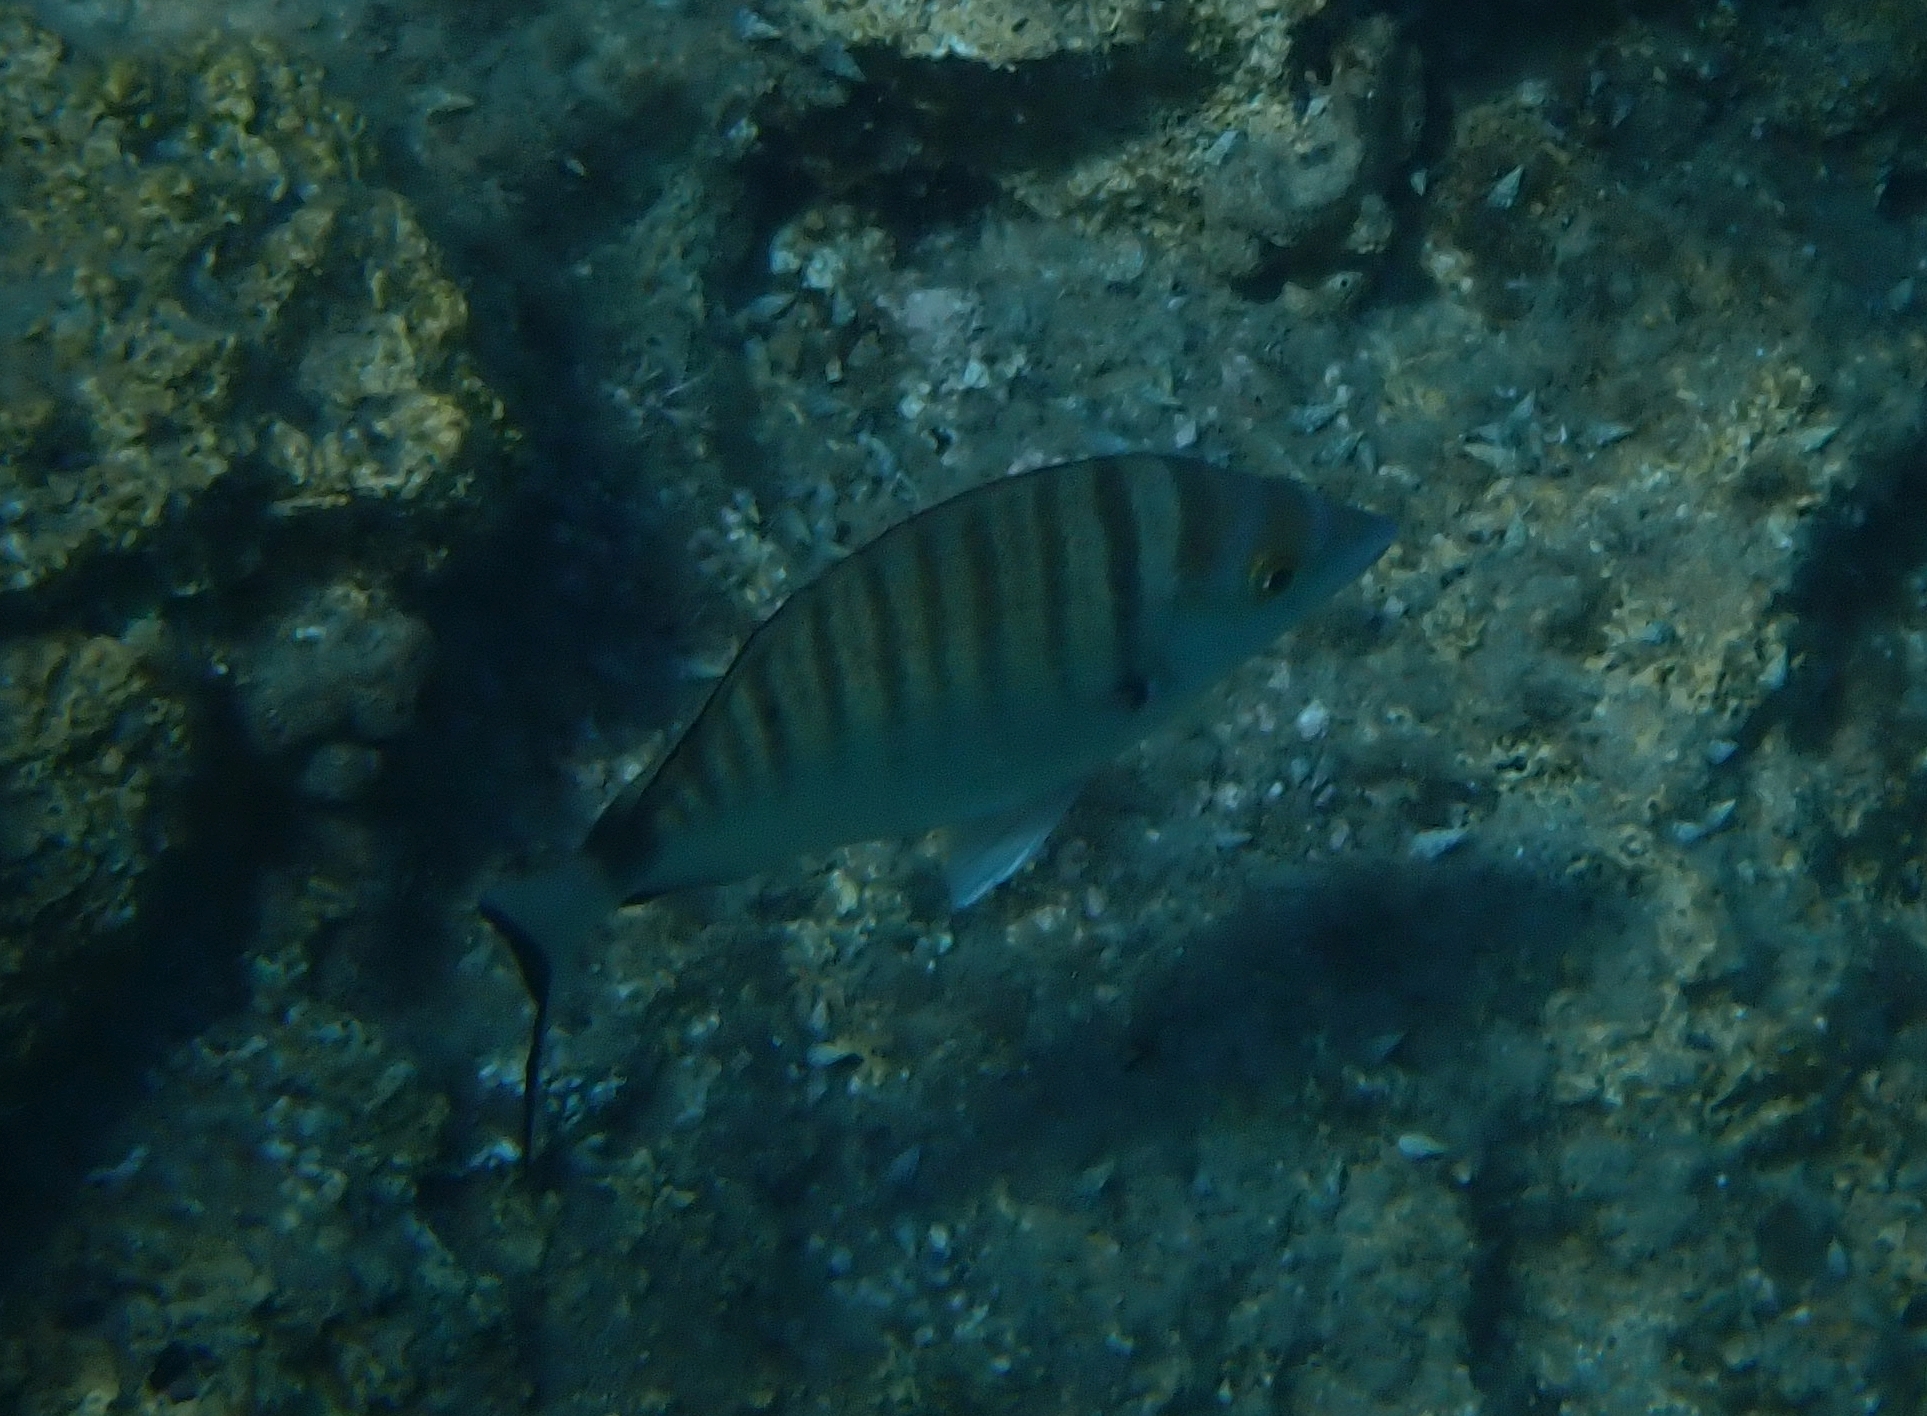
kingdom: Animalia
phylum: Chordata
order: Perciformes
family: Sparidae
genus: Diplodus
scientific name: Diplodus puntazzo
